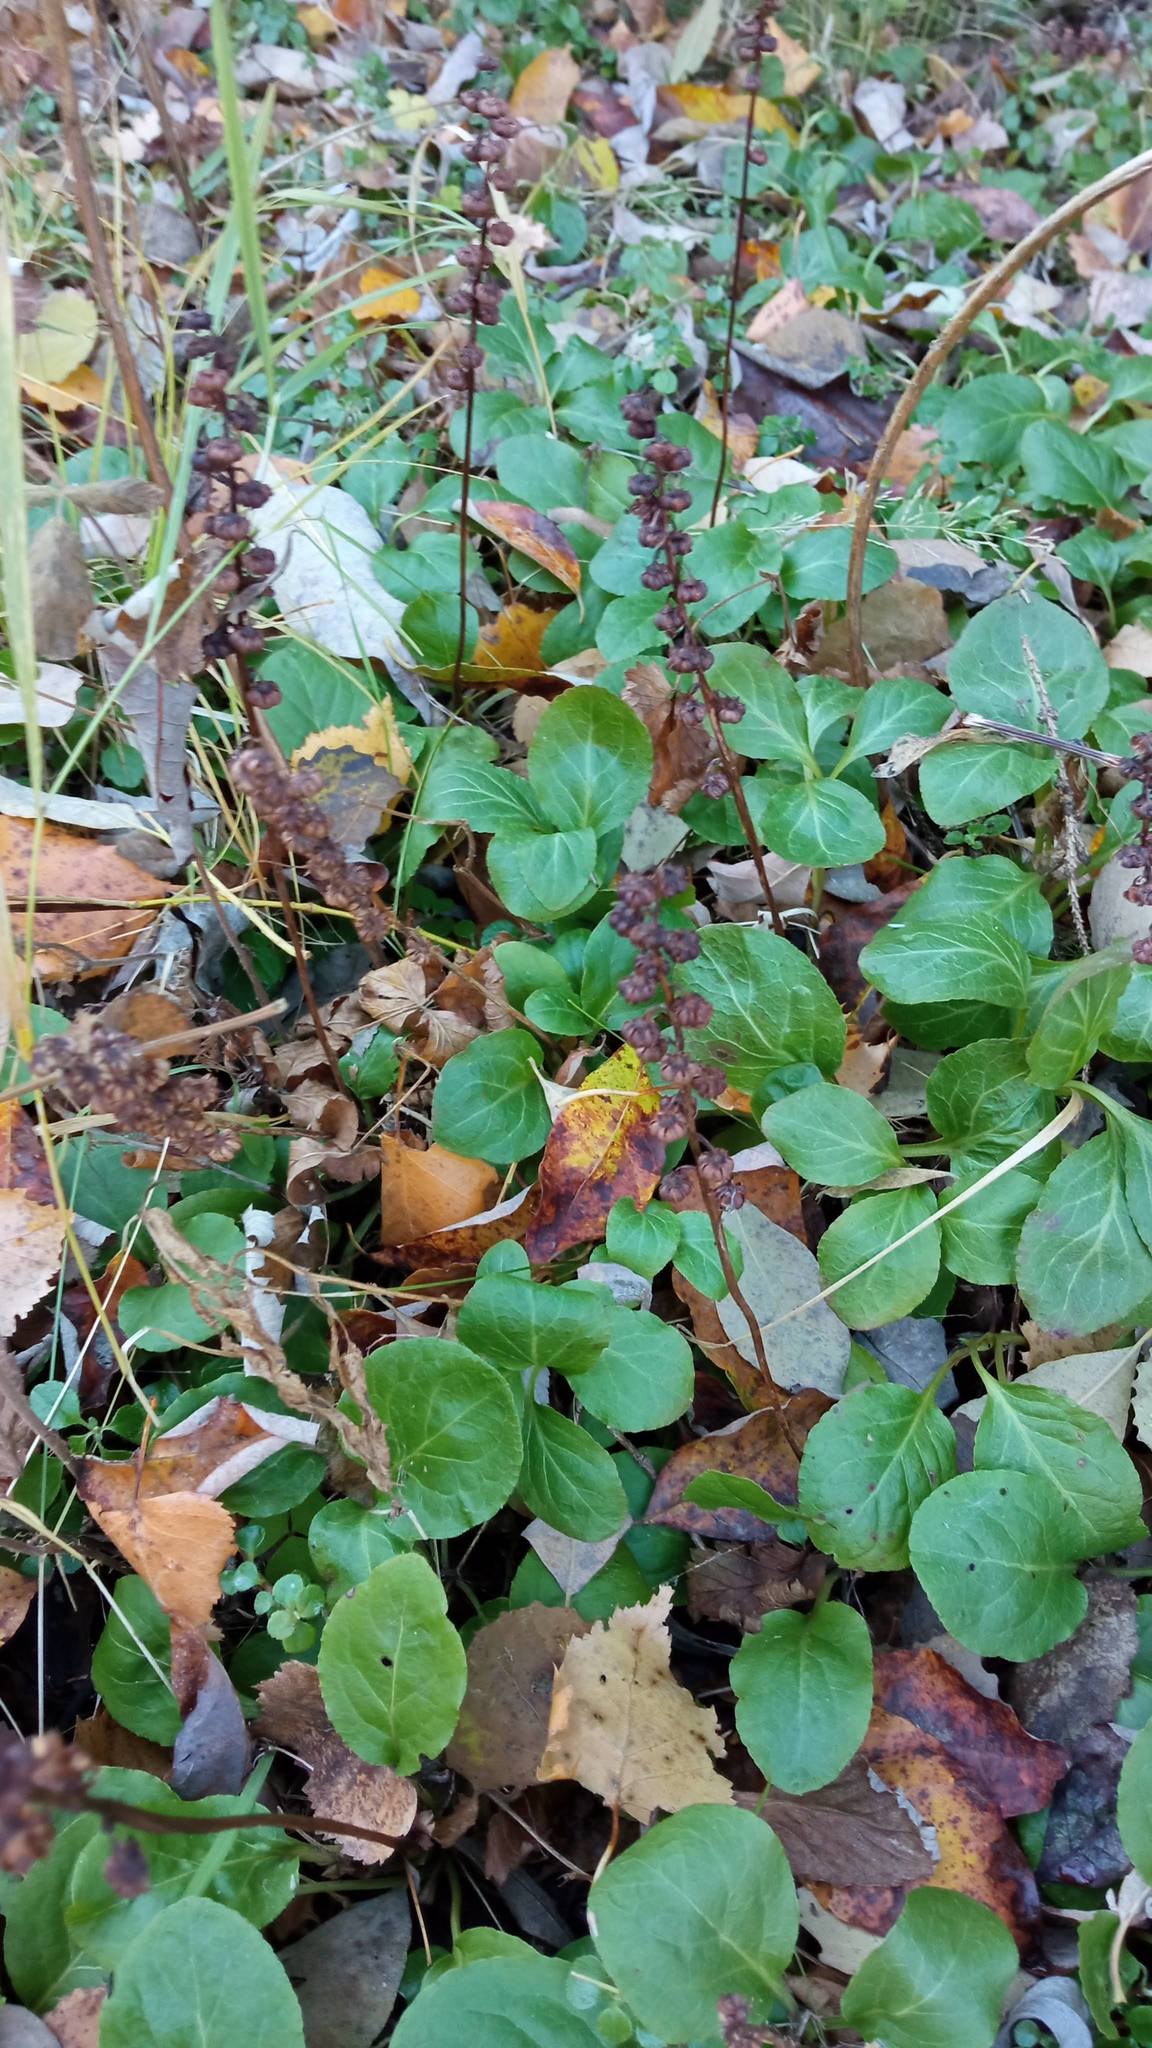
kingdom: Plantae
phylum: Tracheophyta
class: Magnoliopsida
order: Ericales
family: Ericaceae
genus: Pyrola
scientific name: Pyrola minor
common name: Common wintergreen
